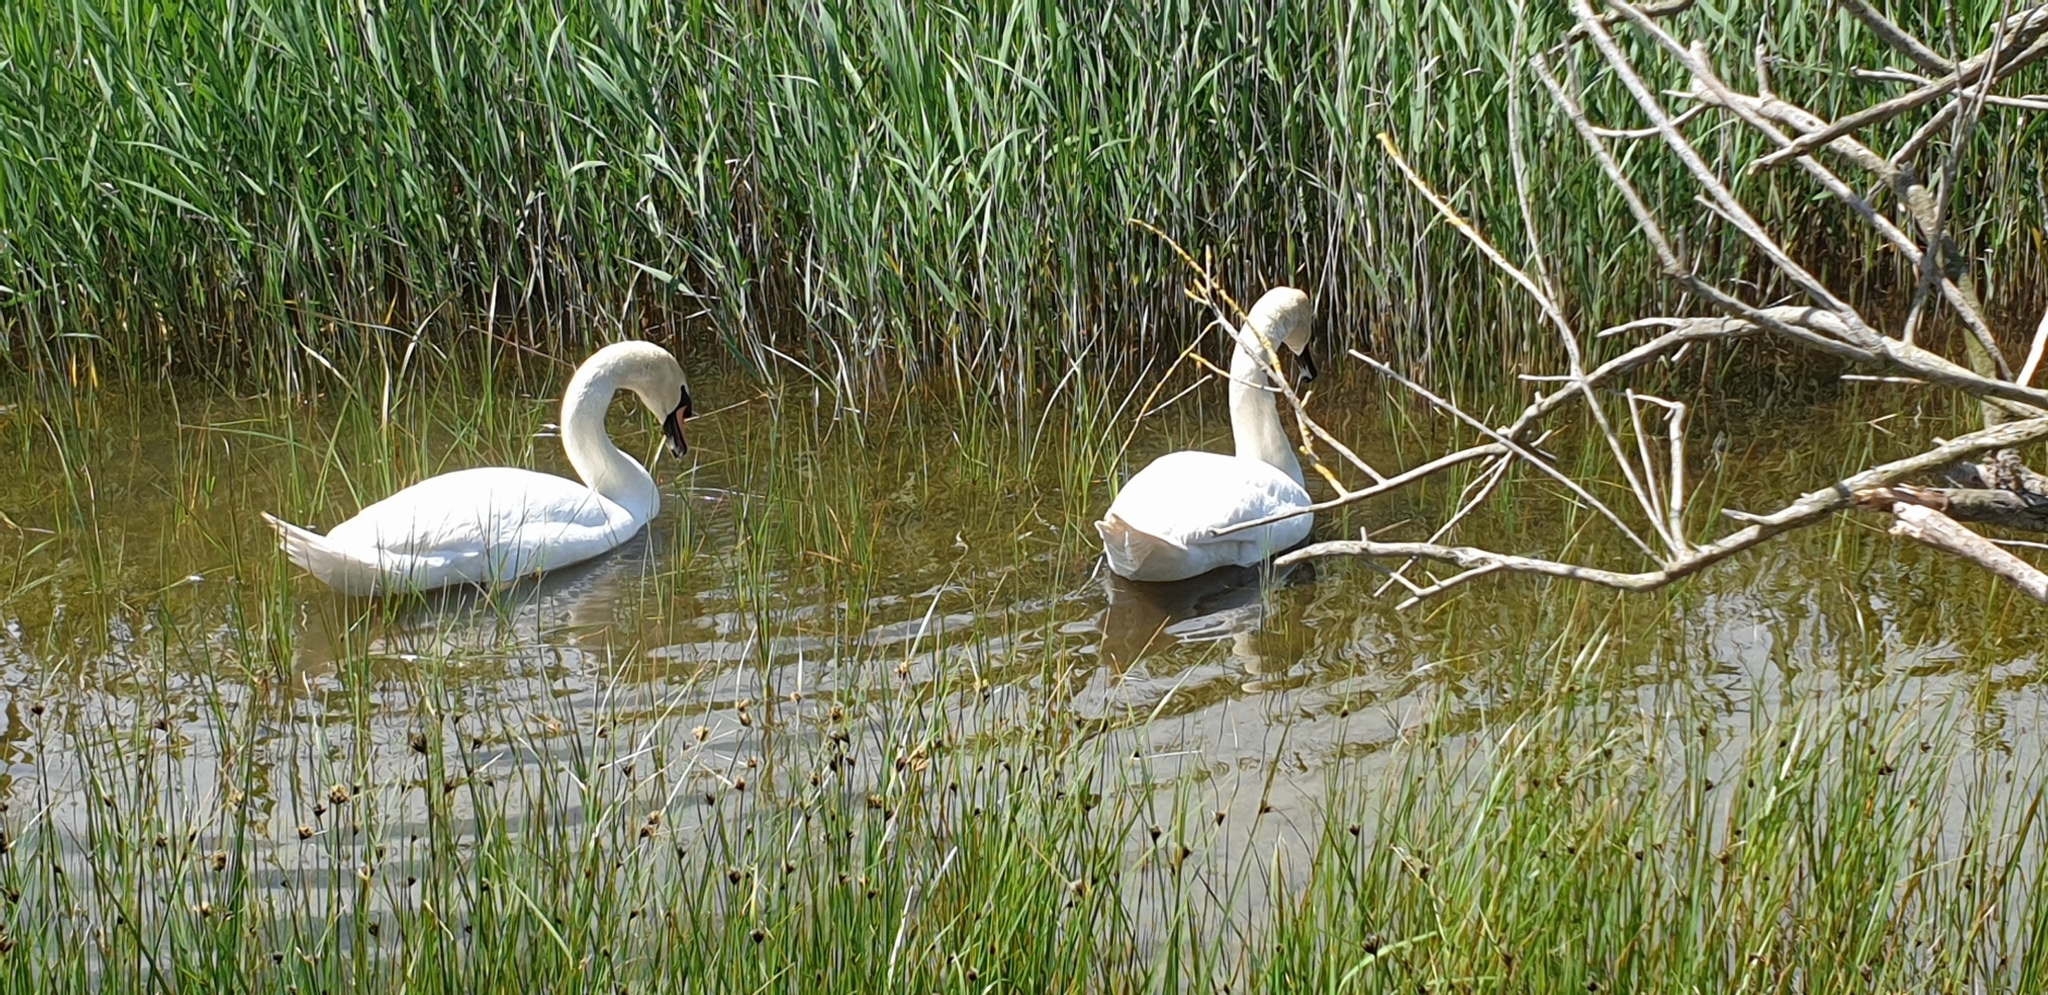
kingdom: Animalia
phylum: Chordata
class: Aves
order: Anseriformes
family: Anatidae
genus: Cygnus
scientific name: Cygnus olor
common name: Mute swan
